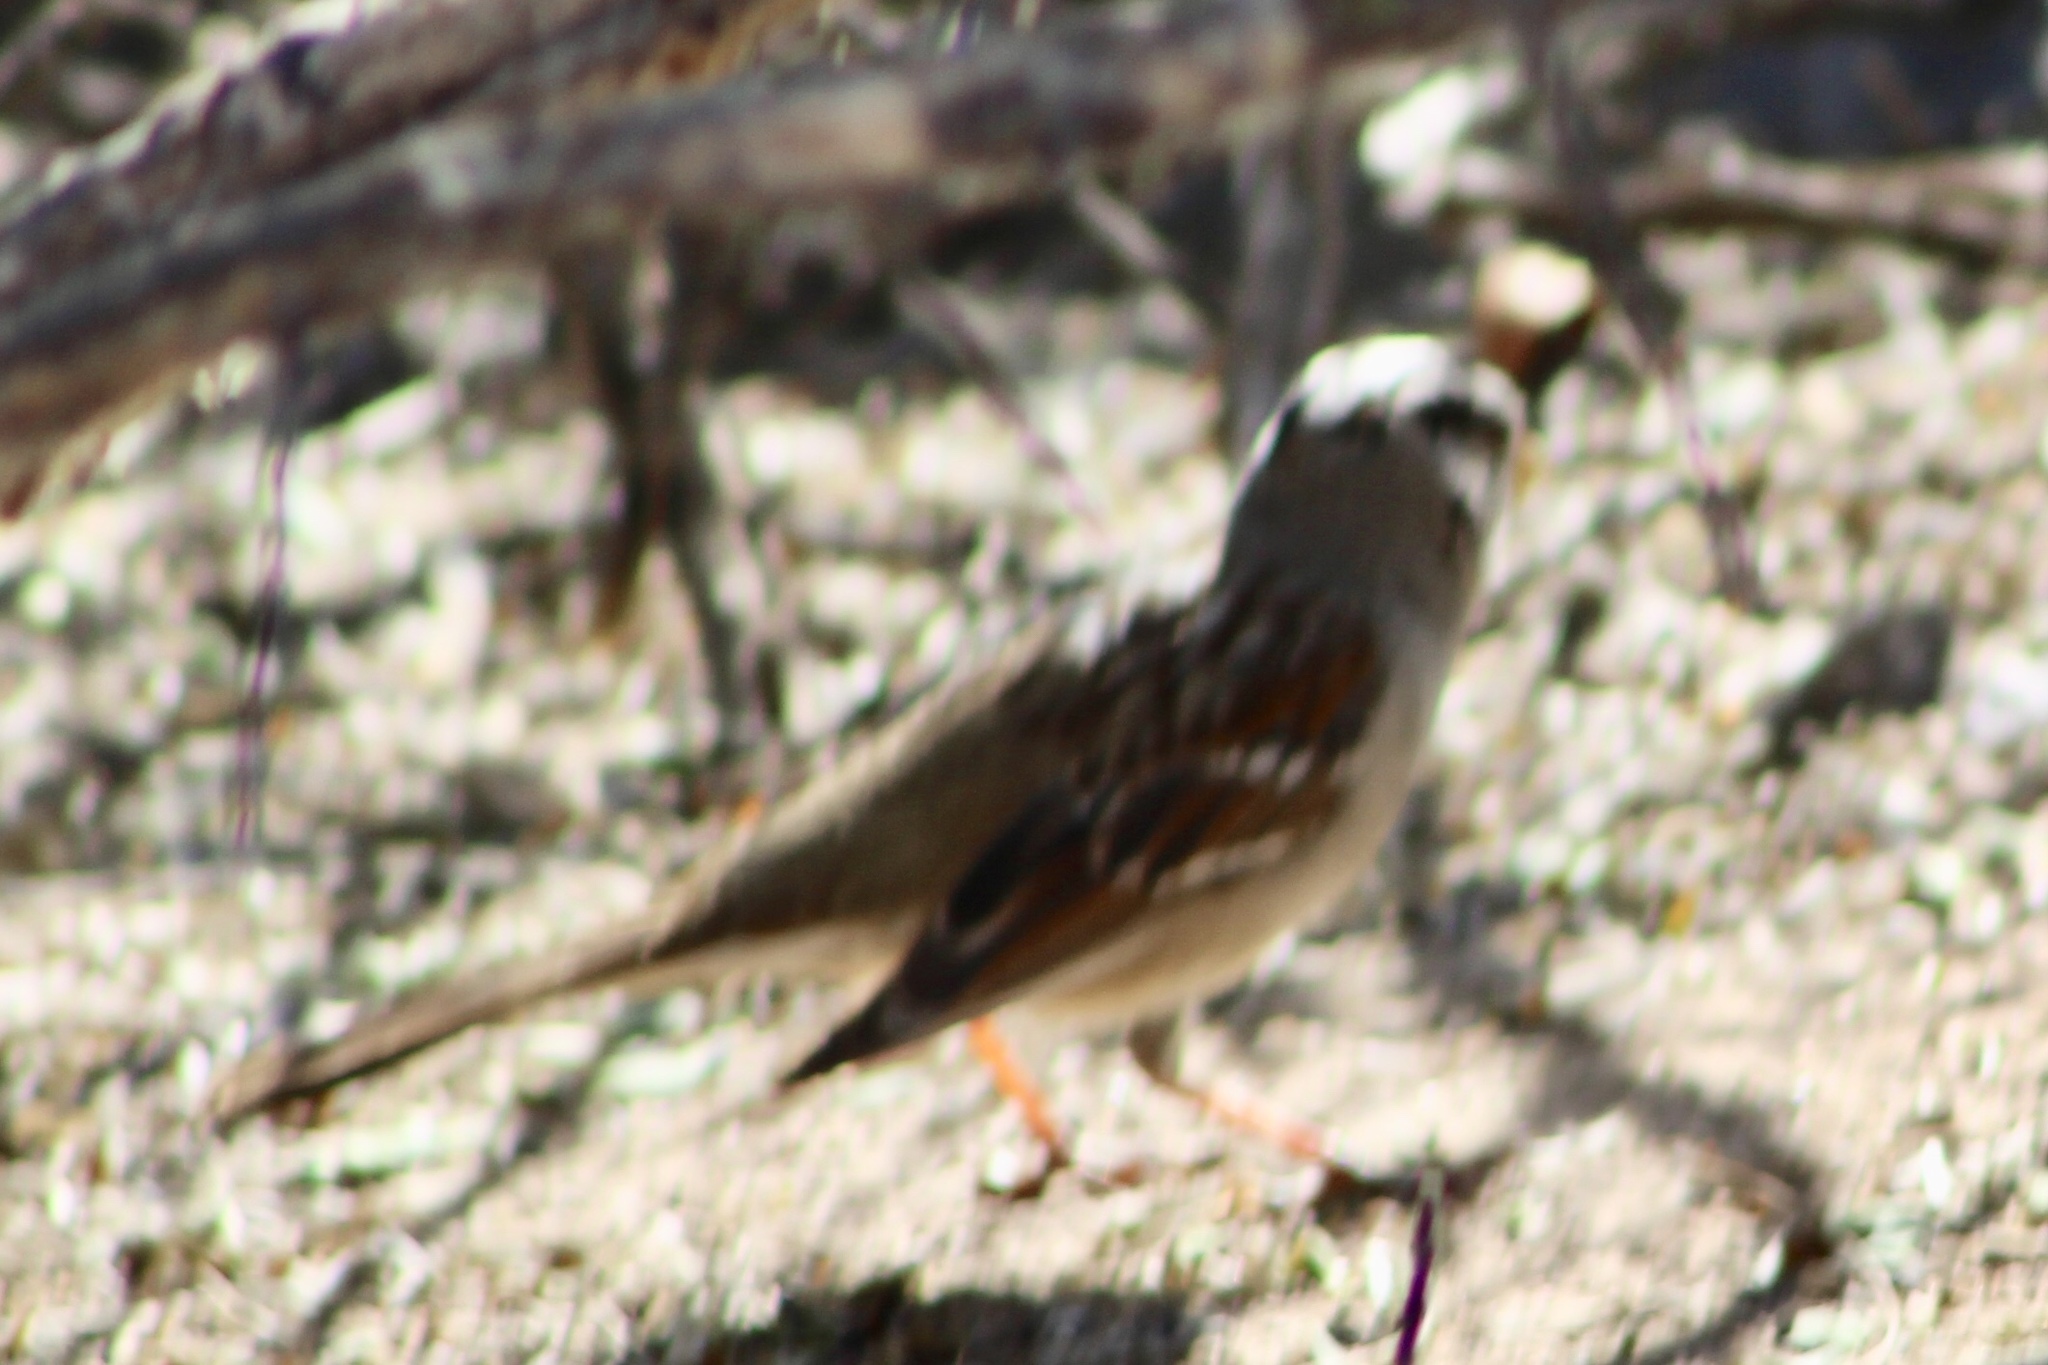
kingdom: Animalia
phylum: Chordata
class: Aves
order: Passeriformes
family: Passerellidae
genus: Zonotrichia
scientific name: Zonotrichia leucophrys
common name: White-crowned sparrow
